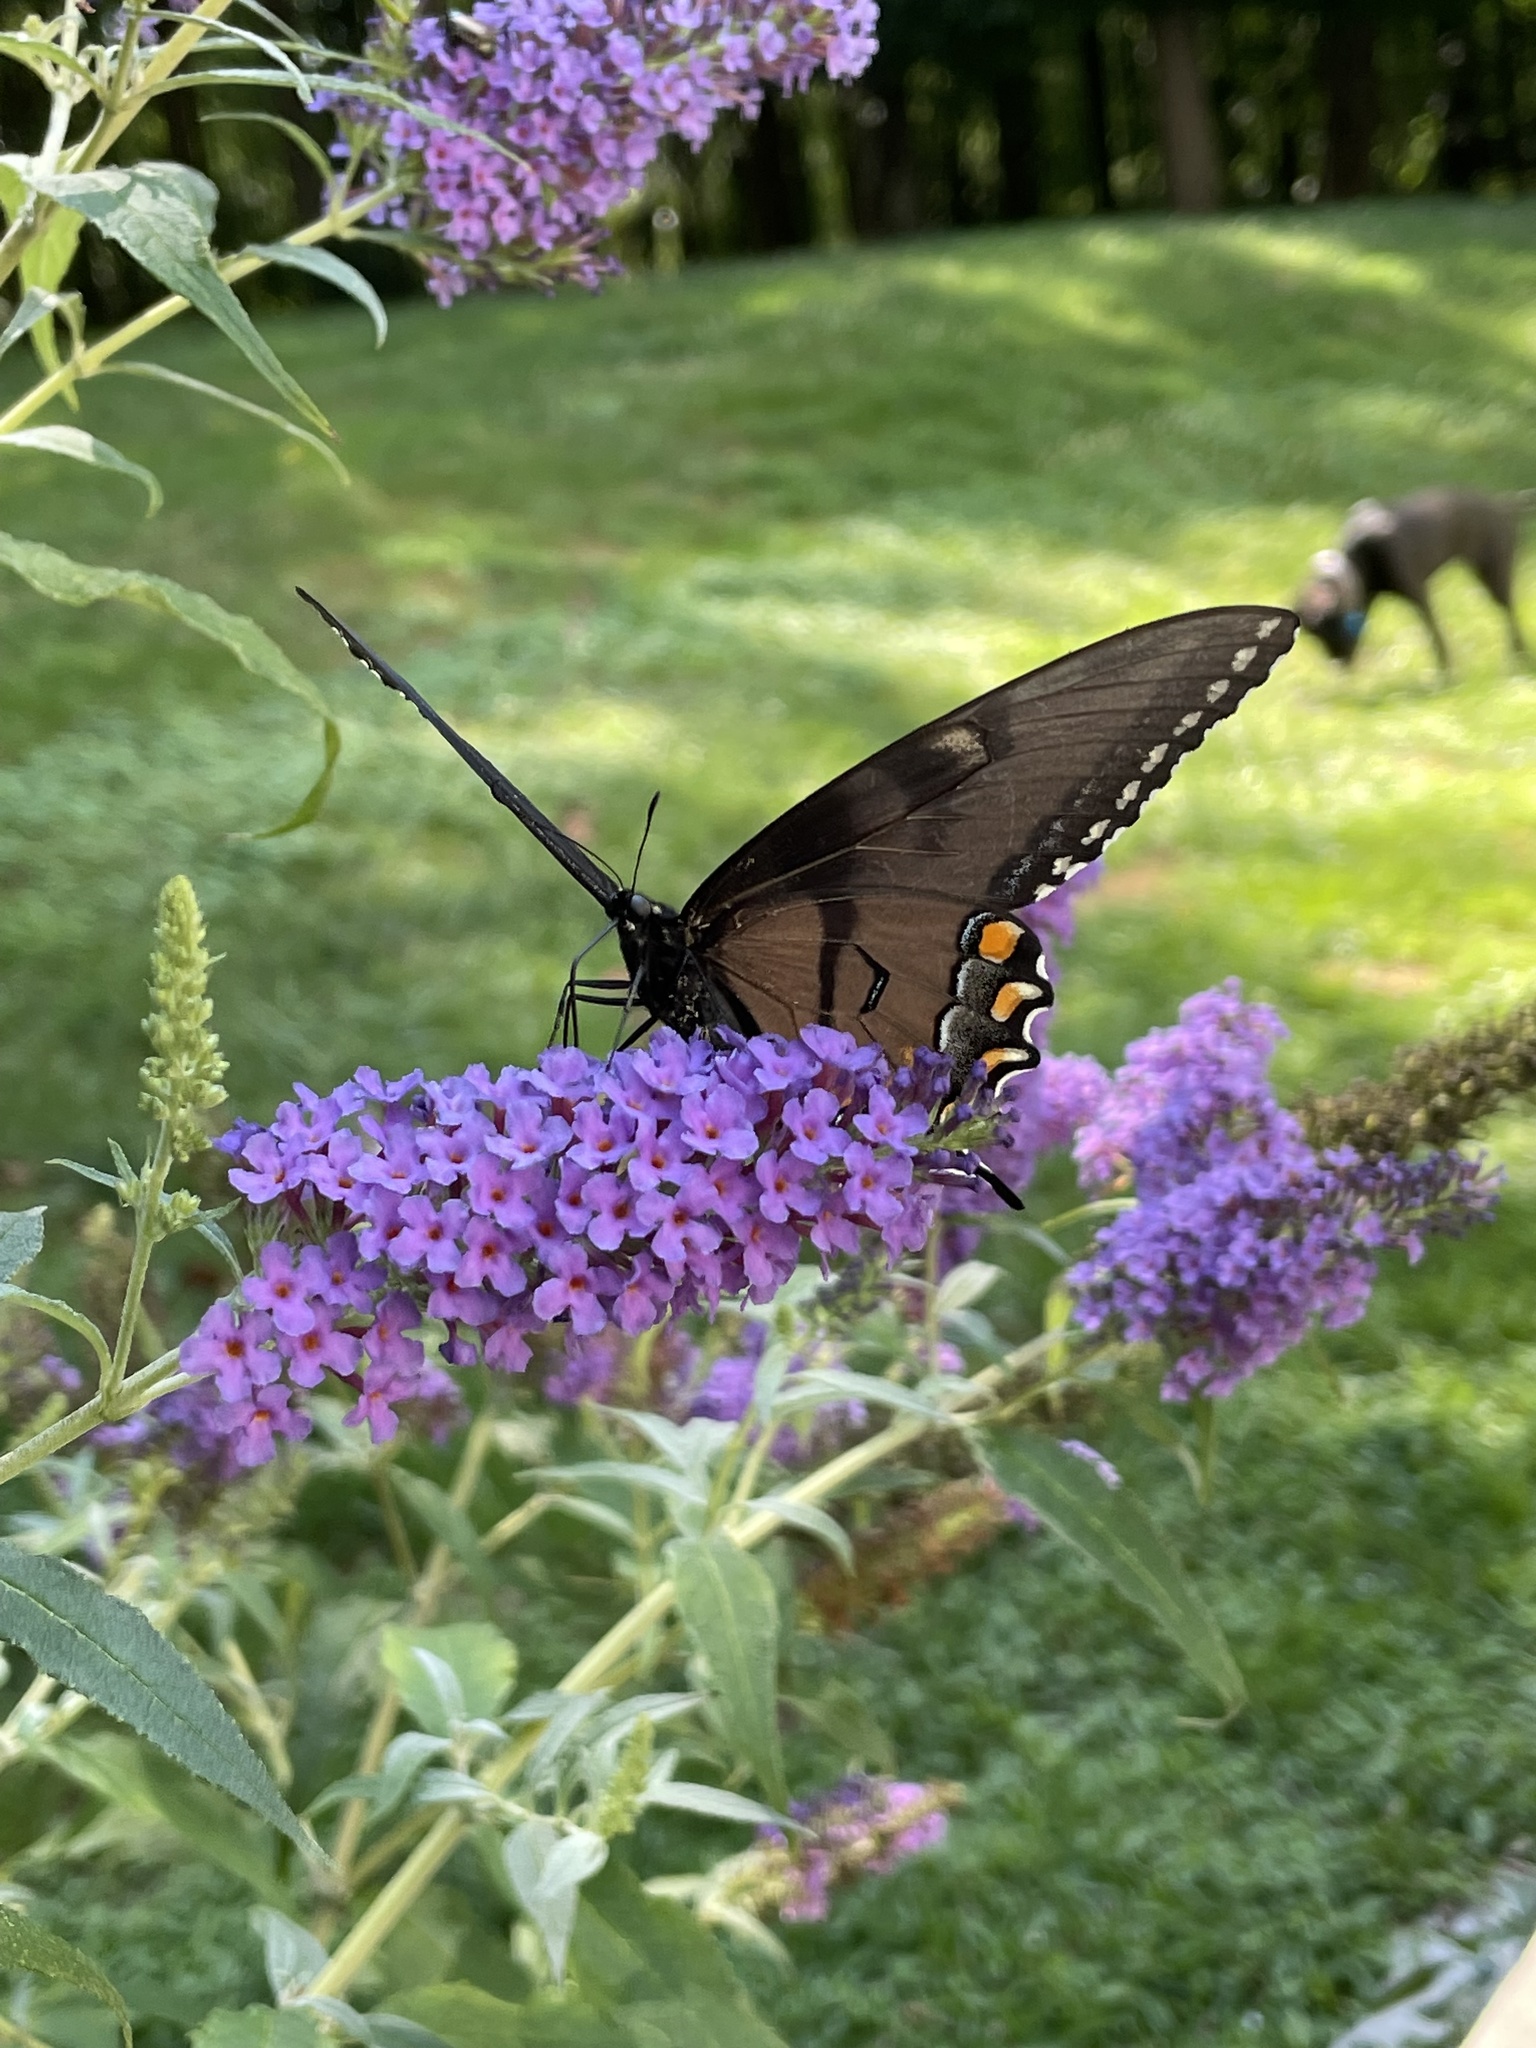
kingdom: Animalia
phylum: Arthropoda
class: Insecta
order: Lepidoptera
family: Papilionidae
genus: Papilio
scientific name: Papilio glaucus
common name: Tiger swallowtail
